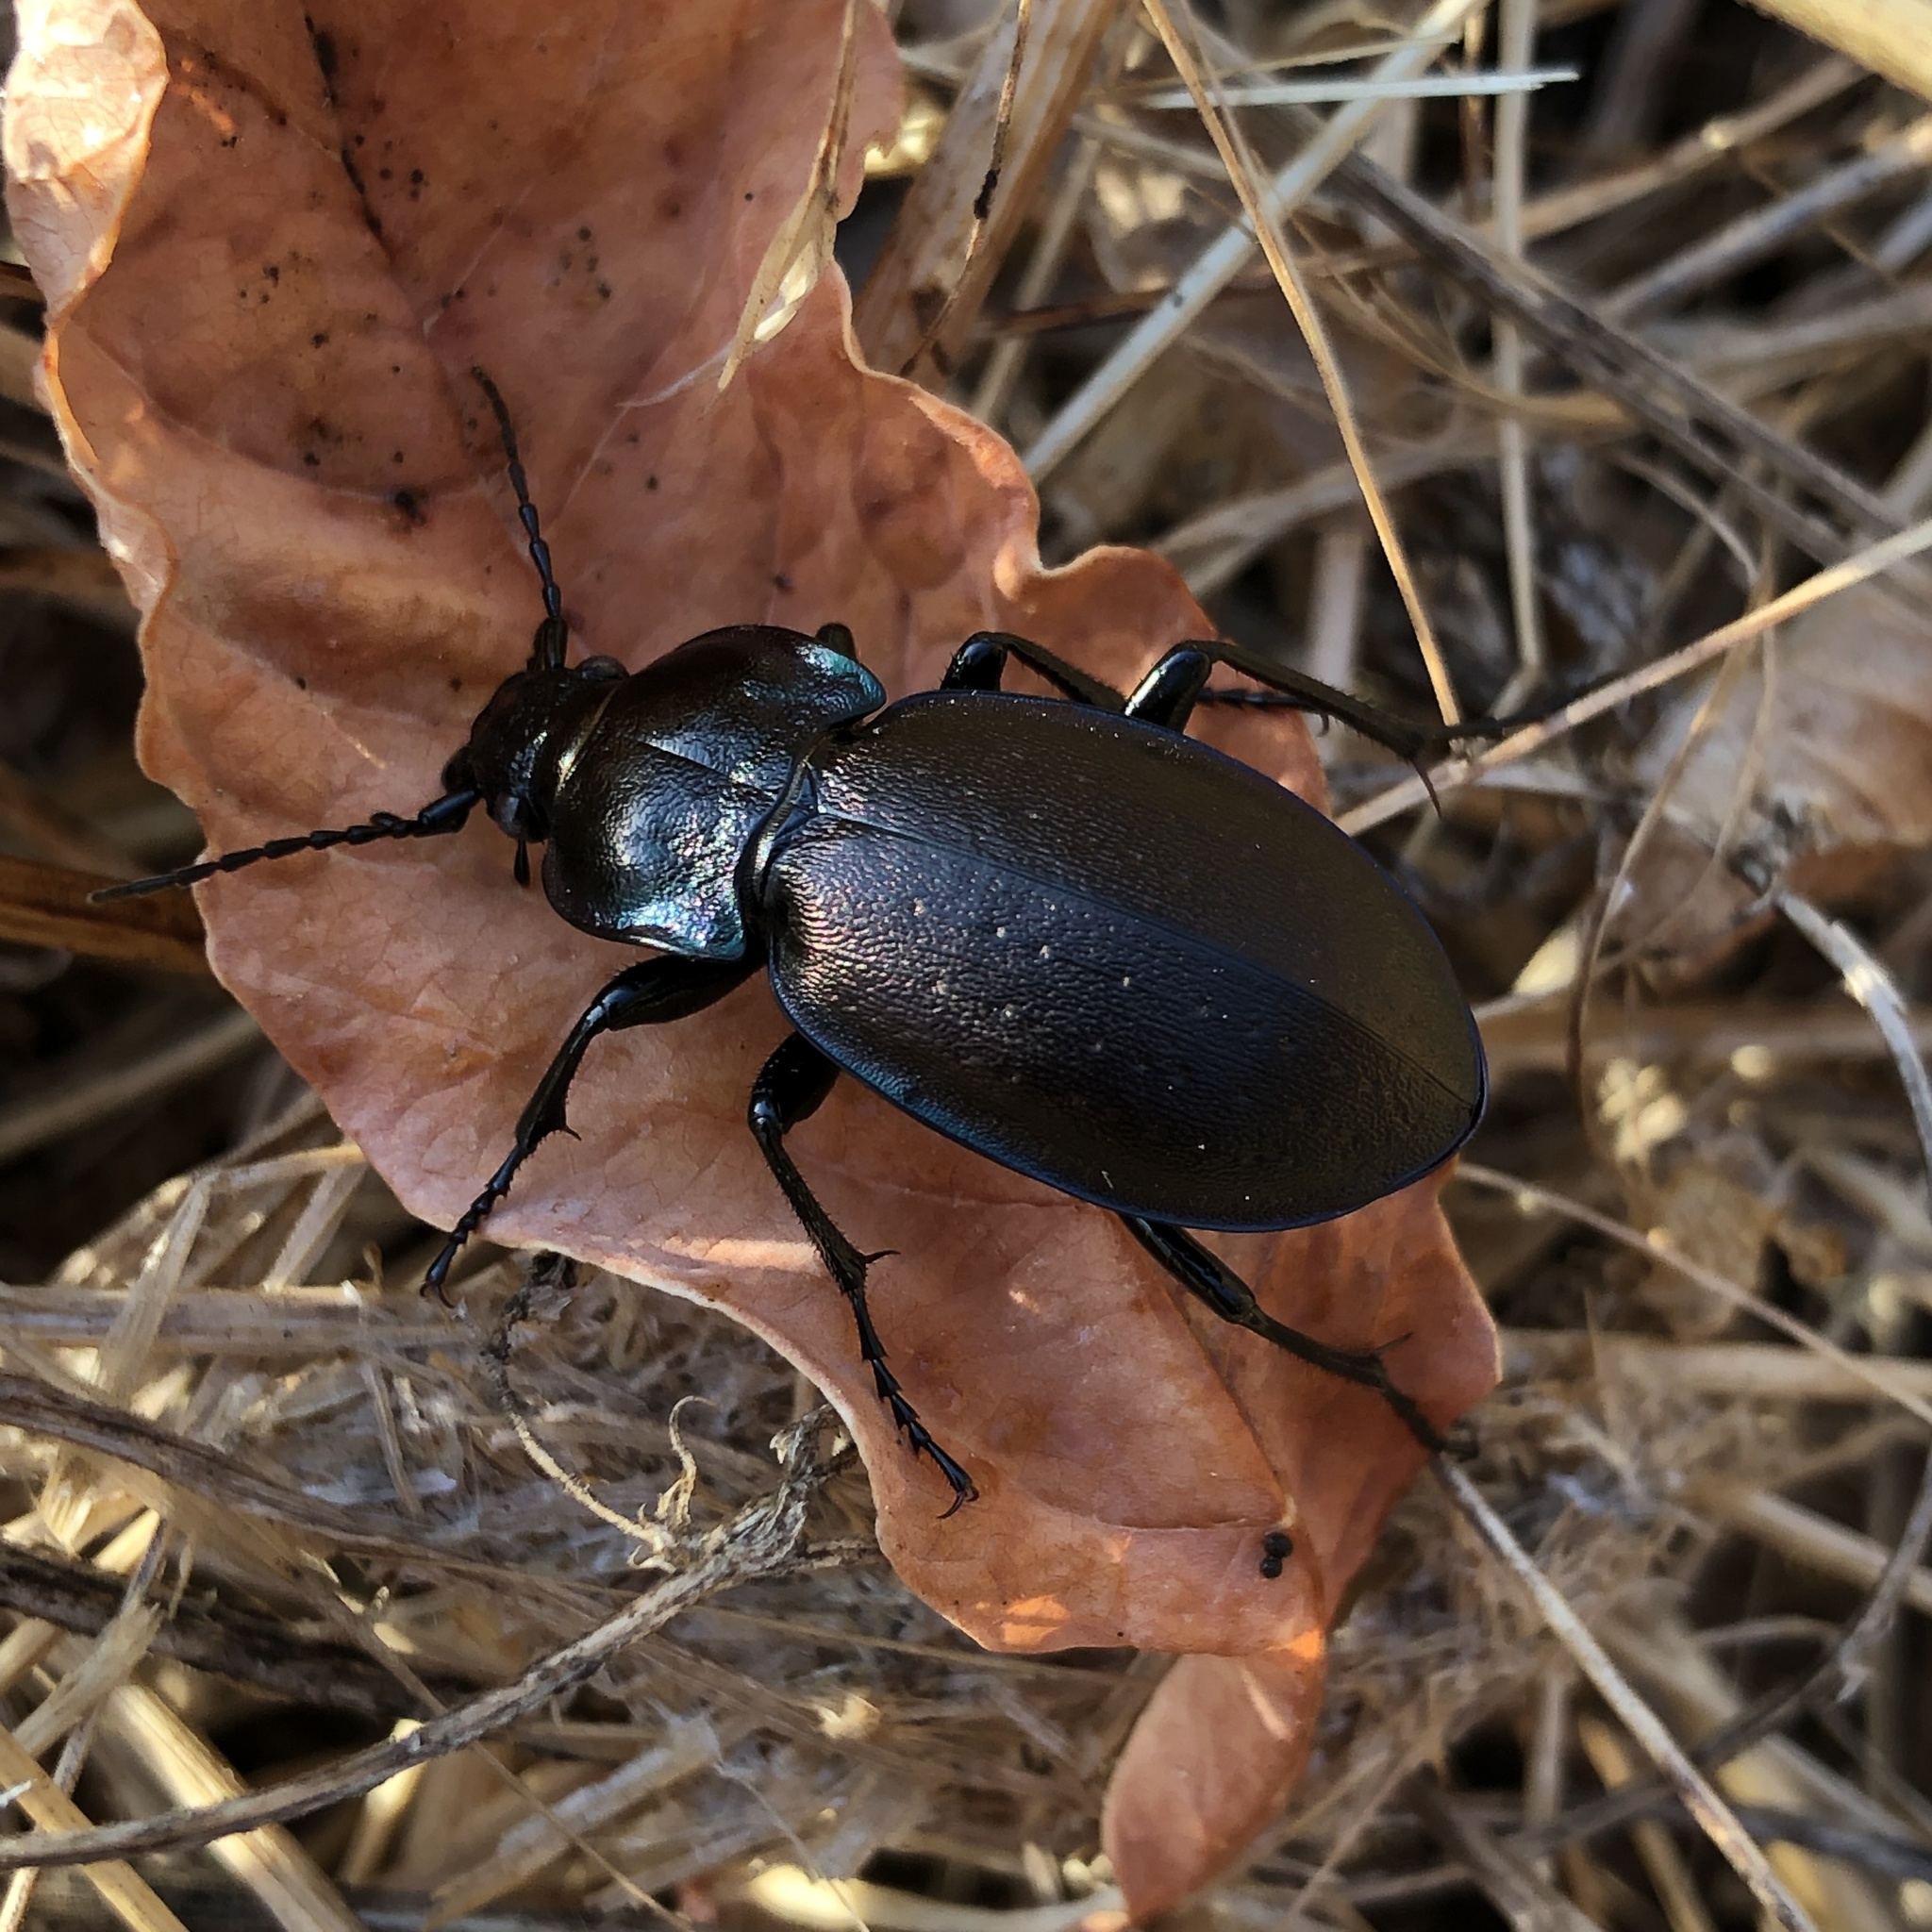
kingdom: Animalia
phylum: Arthropoda
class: Insecta
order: Coleoptera
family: Carabidae
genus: Carabus
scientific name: Carabus nemoralis
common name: European ground beetle
